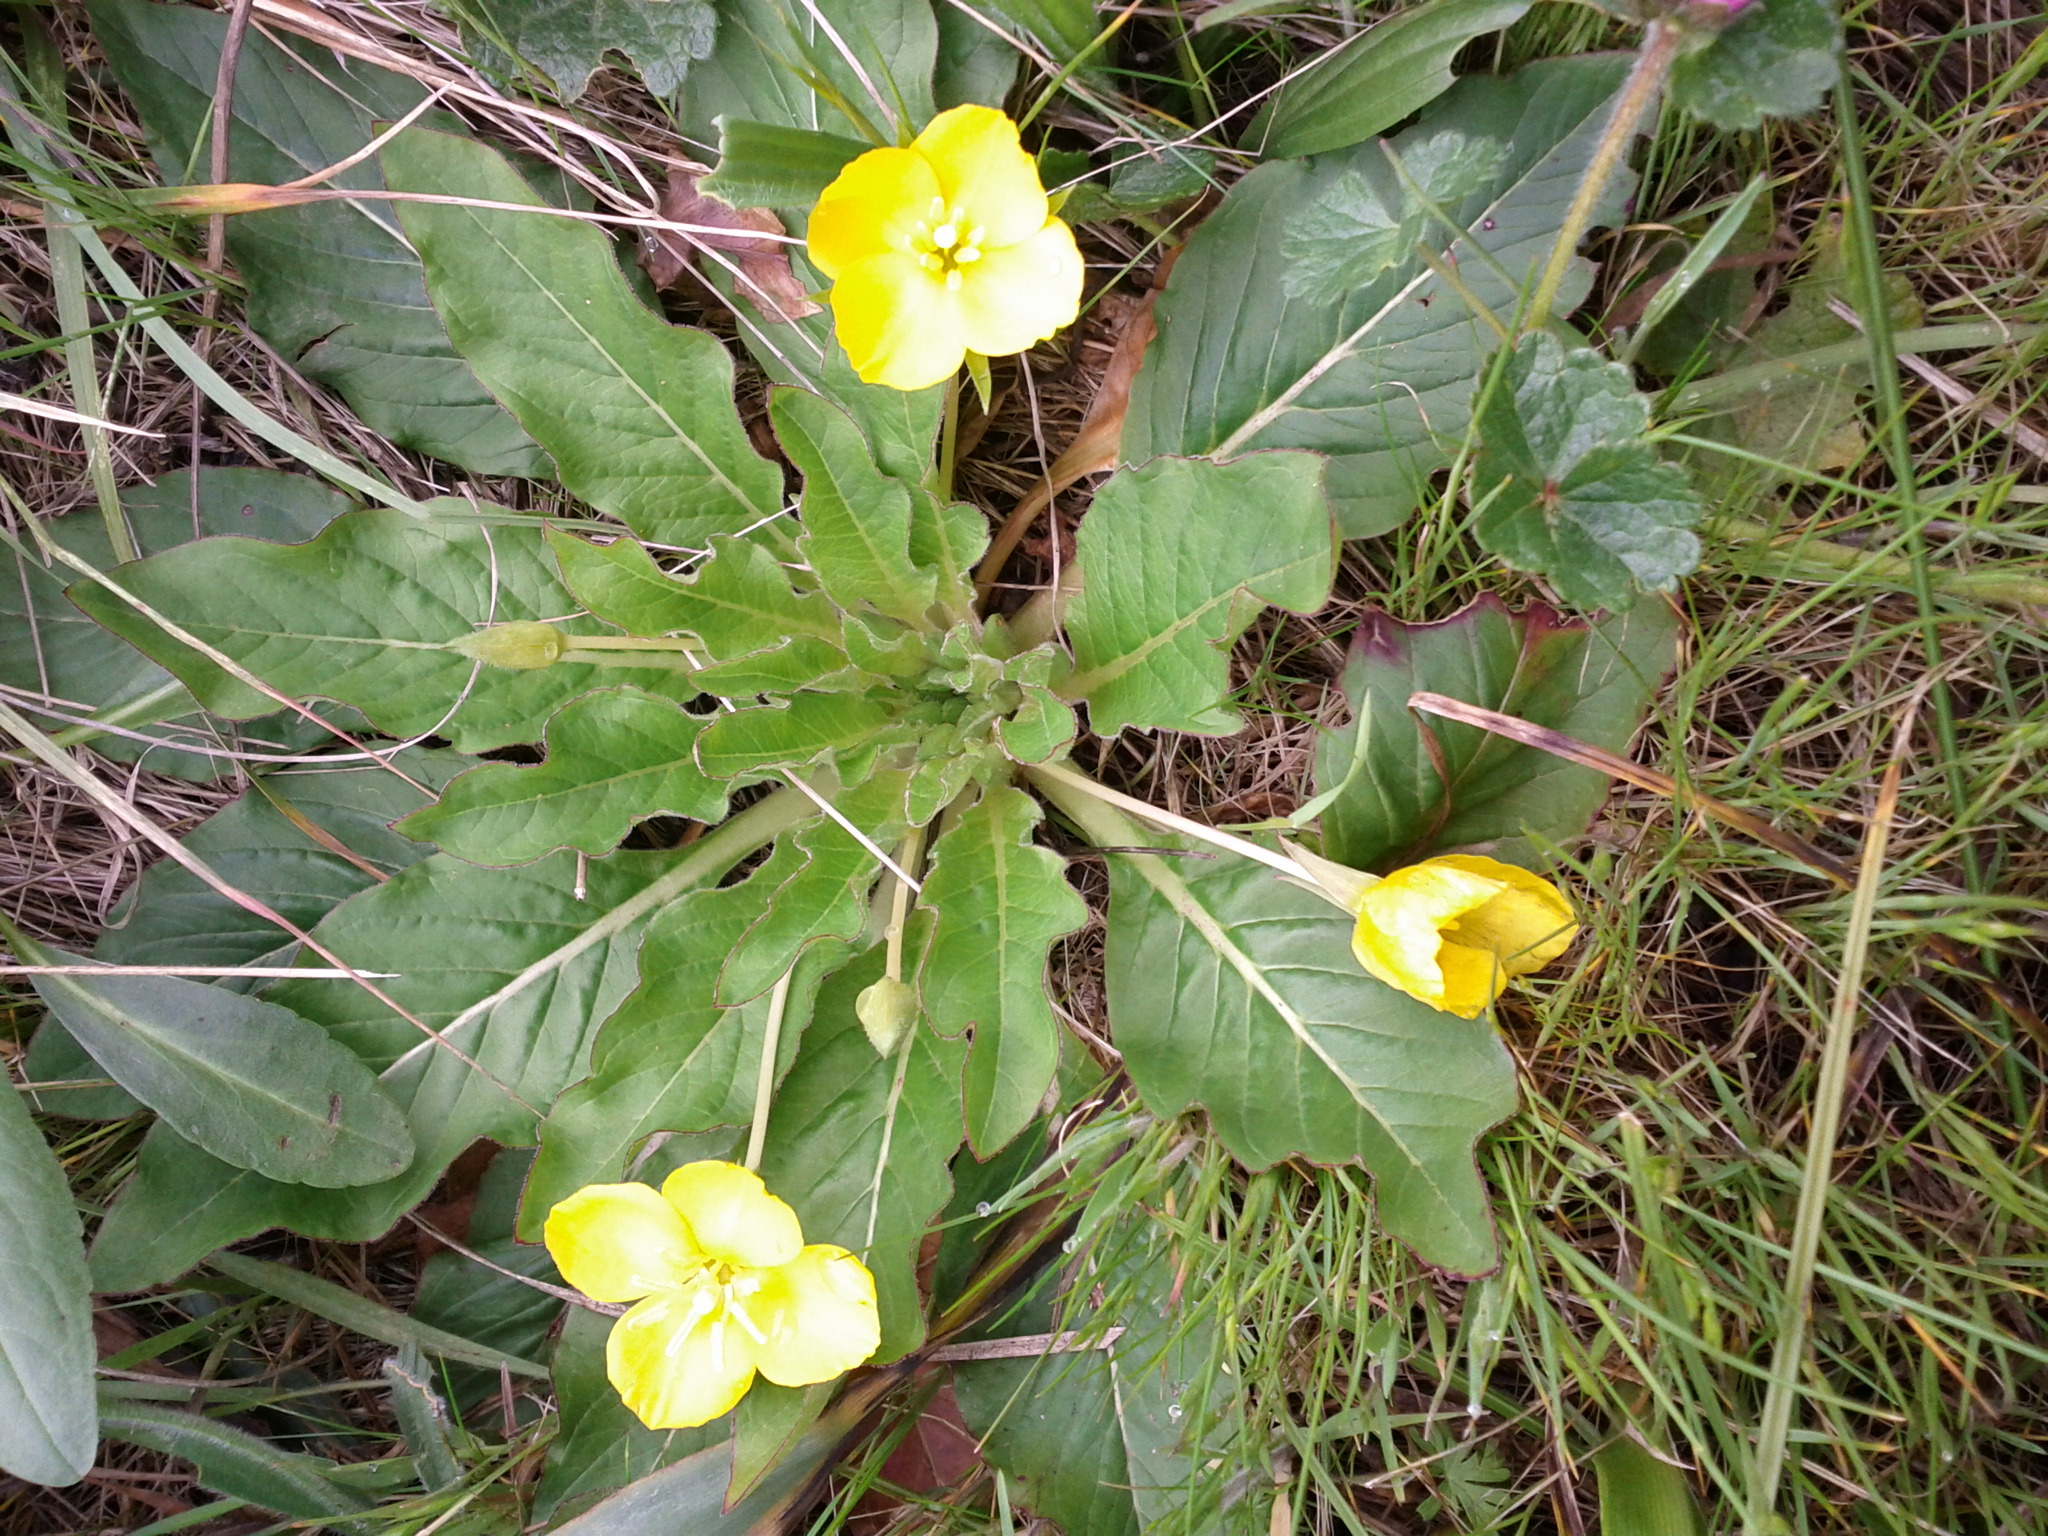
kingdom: Plantae
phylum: Tracheophyta
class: Magnoliopsida
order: Myrtales
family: Onagraceae
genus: Taraxia
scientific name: Taraxia ovata
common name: Goldeneggs
